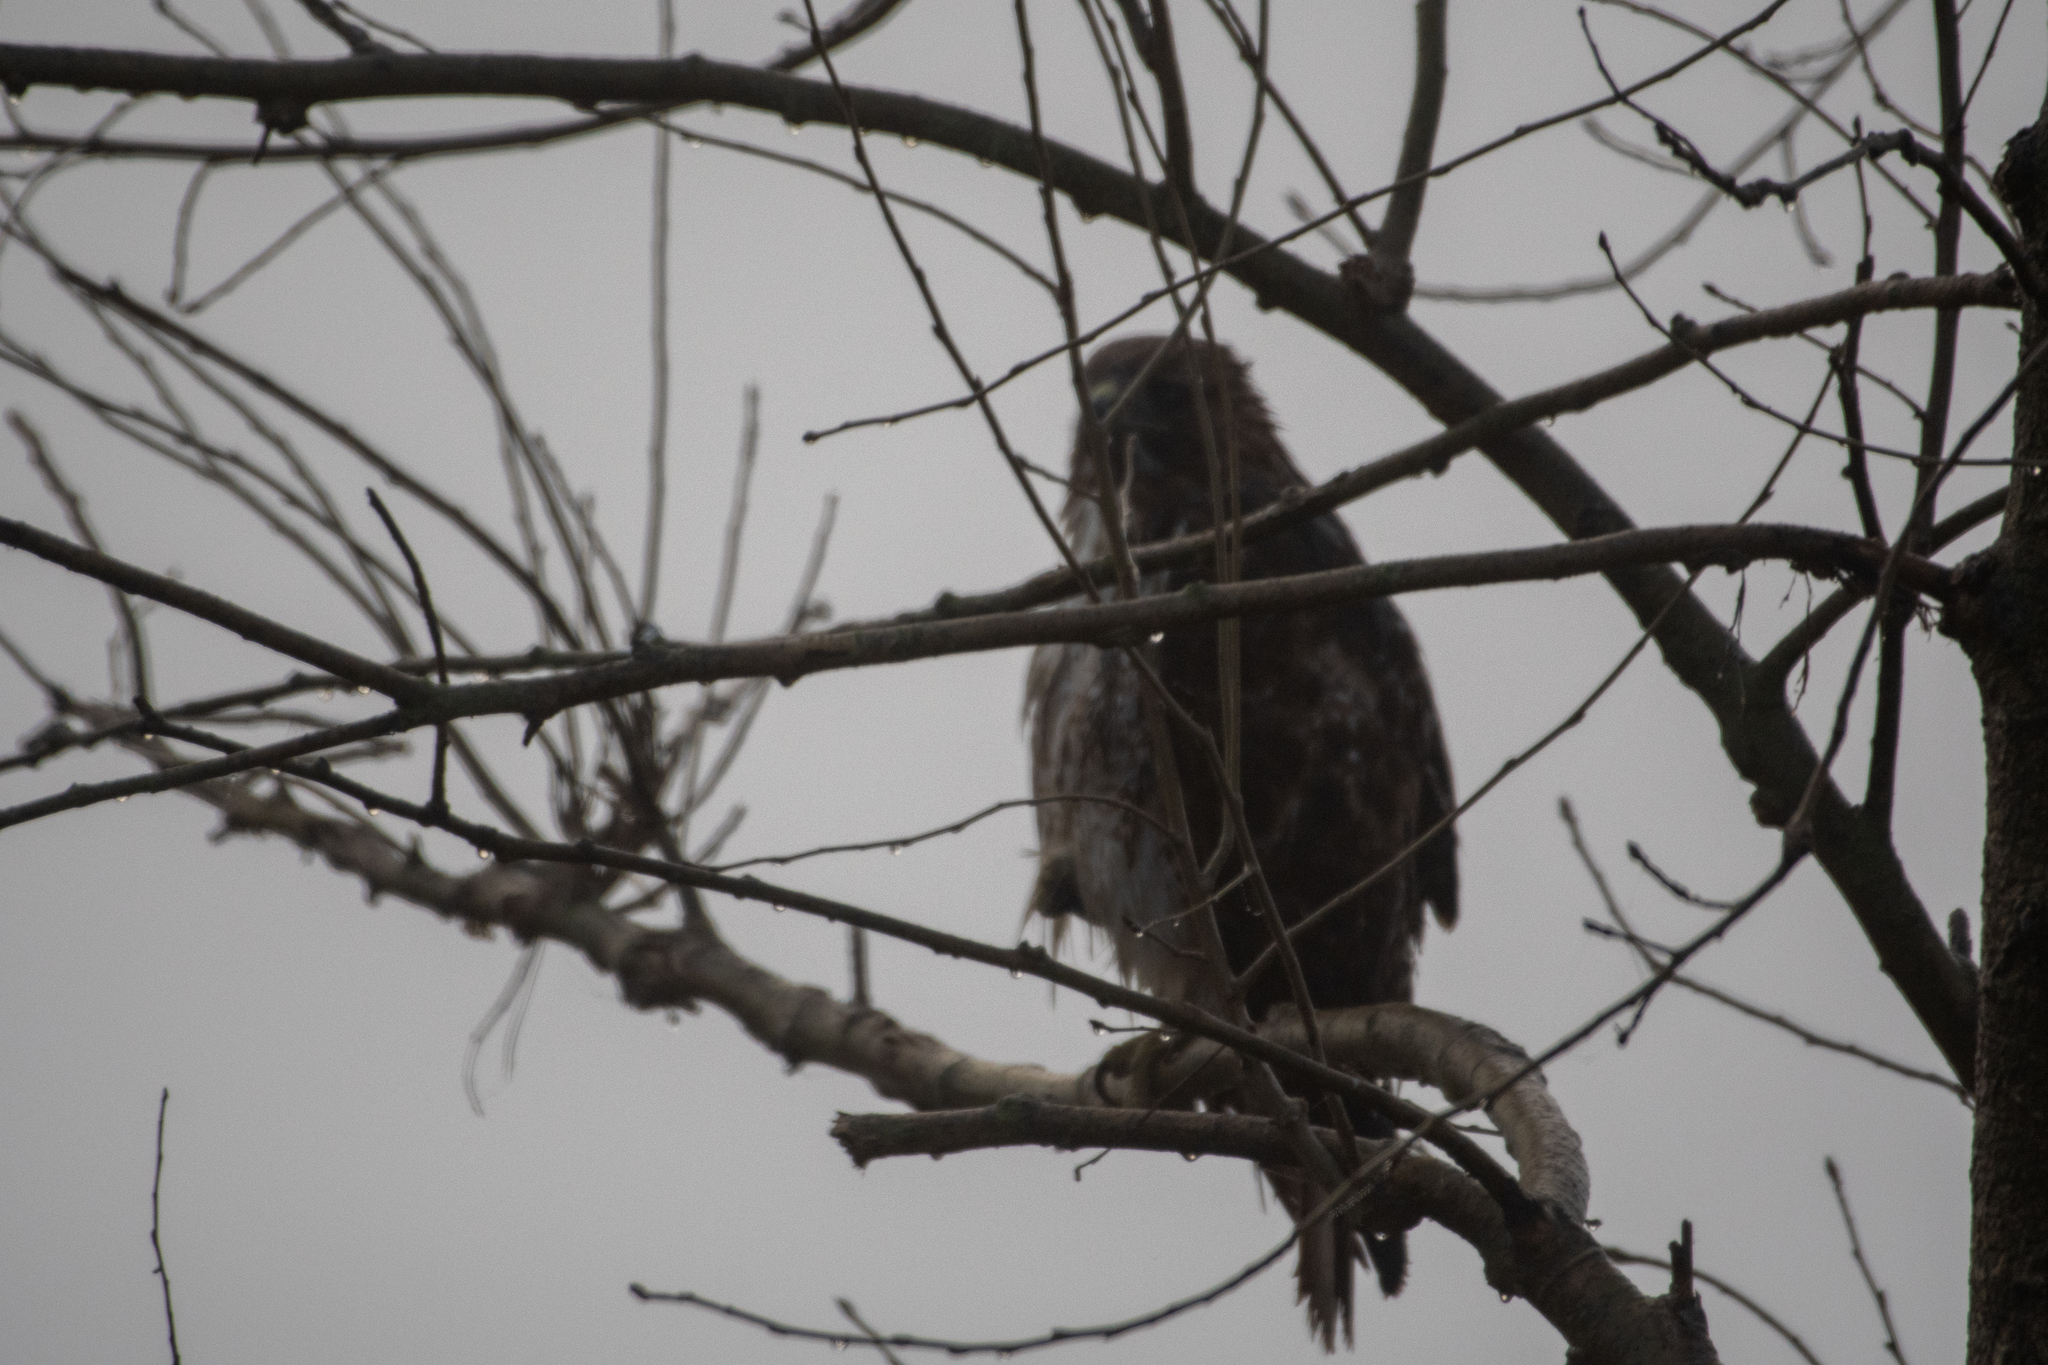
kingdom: Animalia
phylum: Chordata
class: Aves
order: Accipitriformes
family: Accipitridae
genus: Buteo
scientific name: Buteo jamaicensis
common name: Red-tailed hawk
